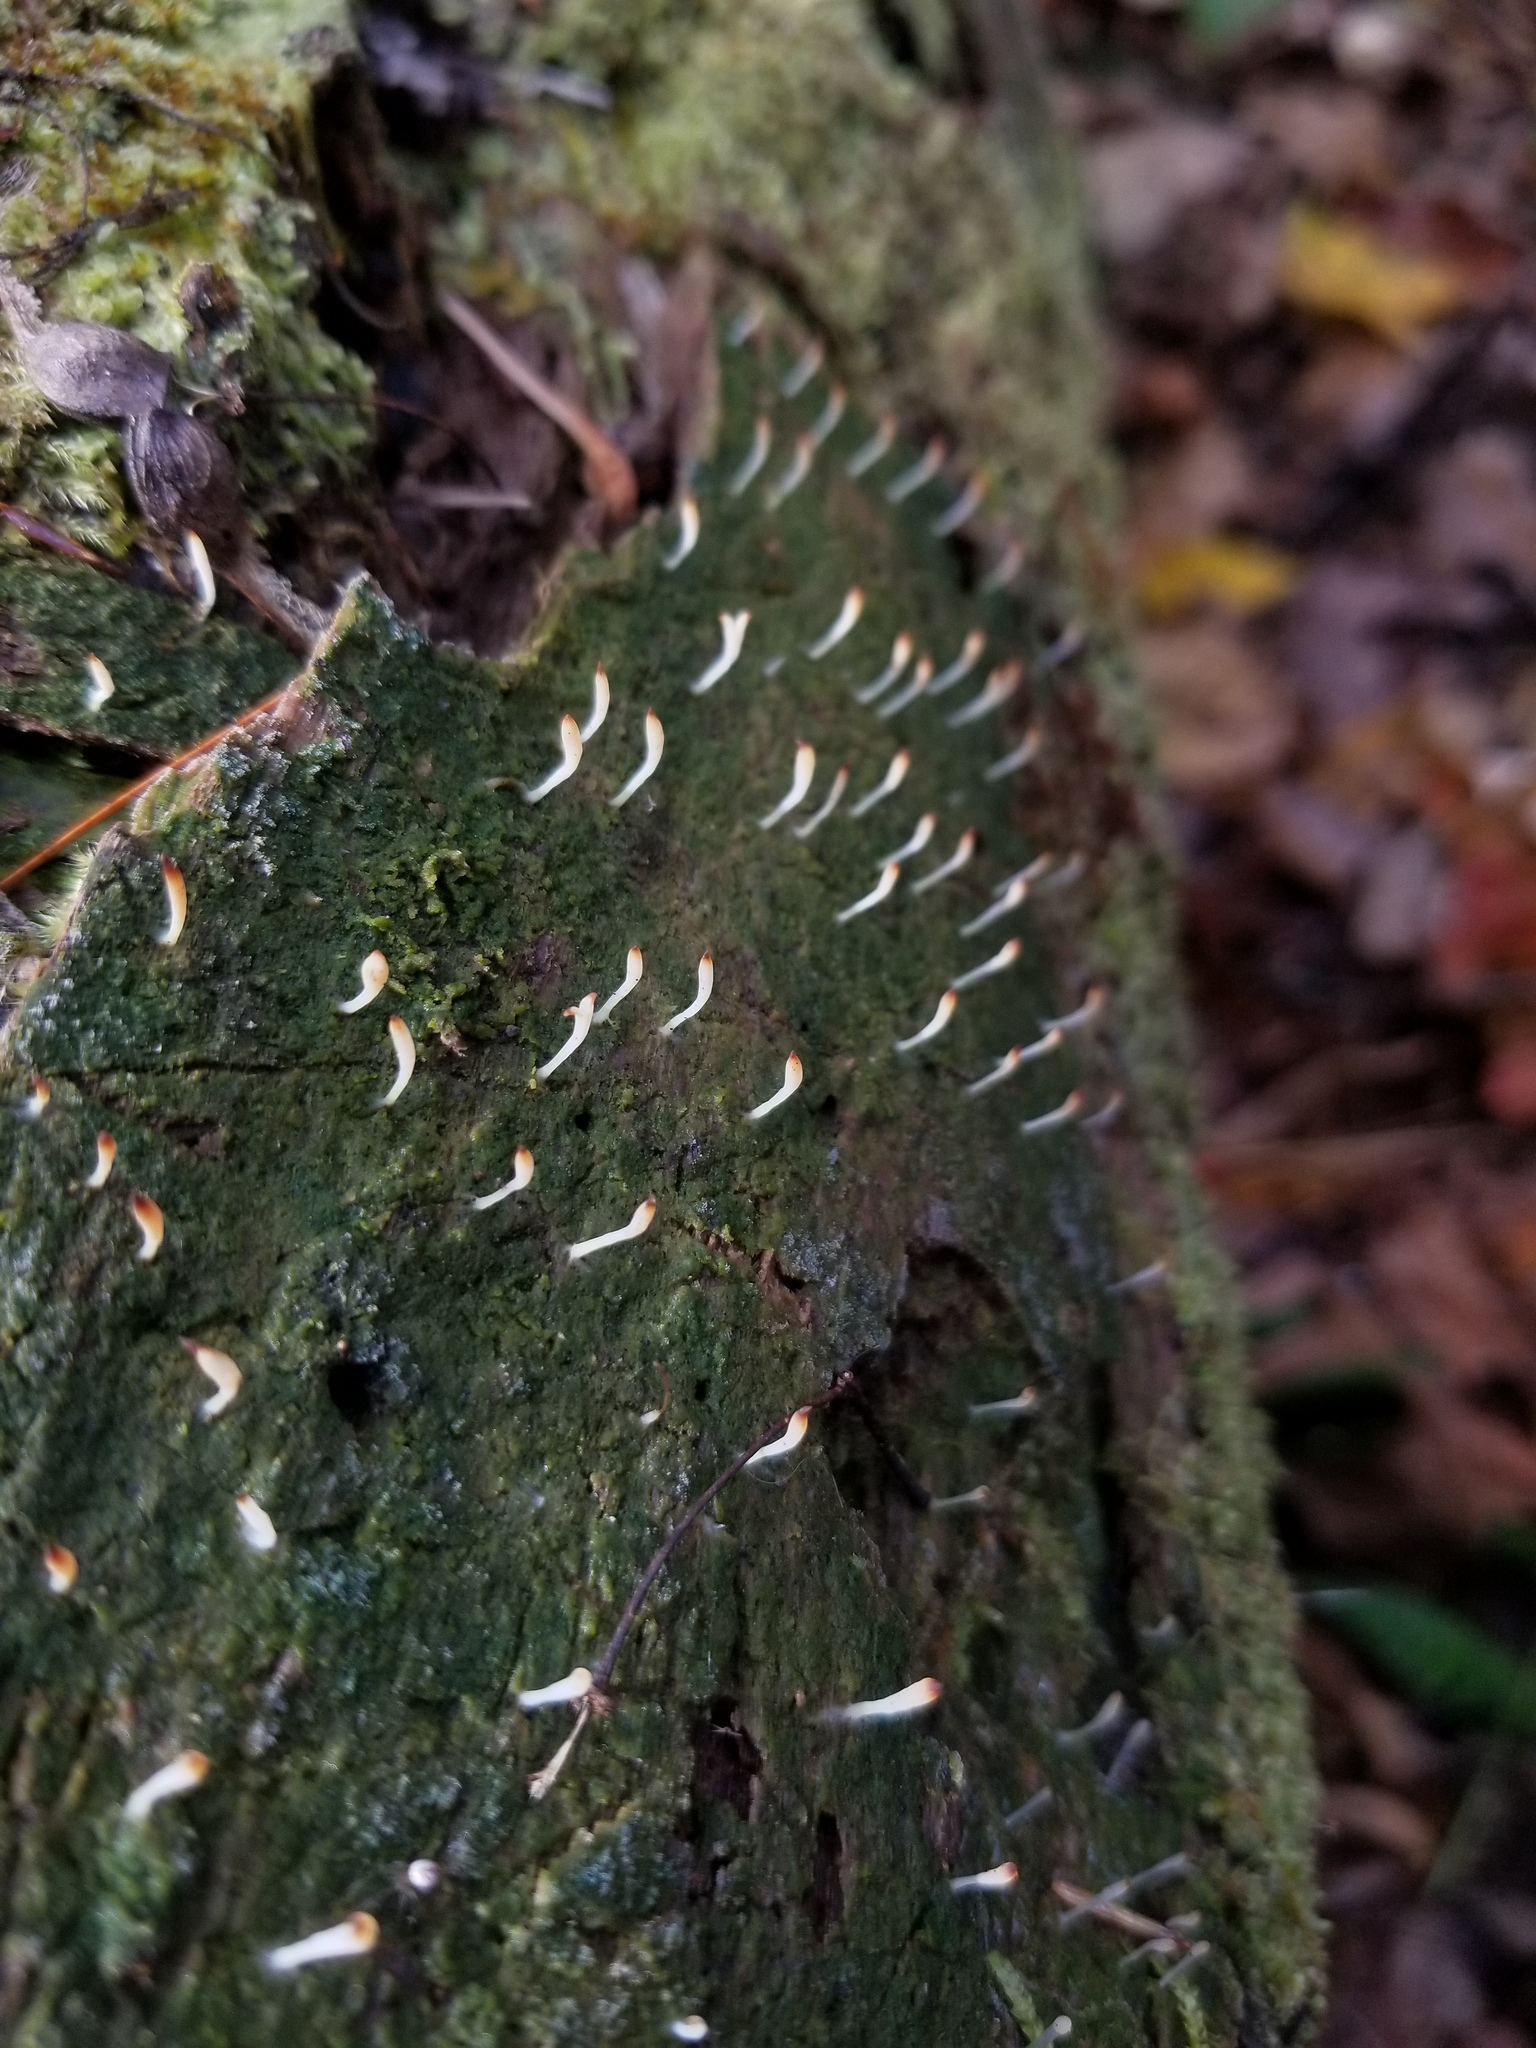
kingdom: Fungi
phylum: Basidiomycota
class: Agaricomycetes
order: Cantharellales
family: Hydnaceae
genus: Multiclavula
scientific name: Multiclavula mucida
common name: White green-algae coral
